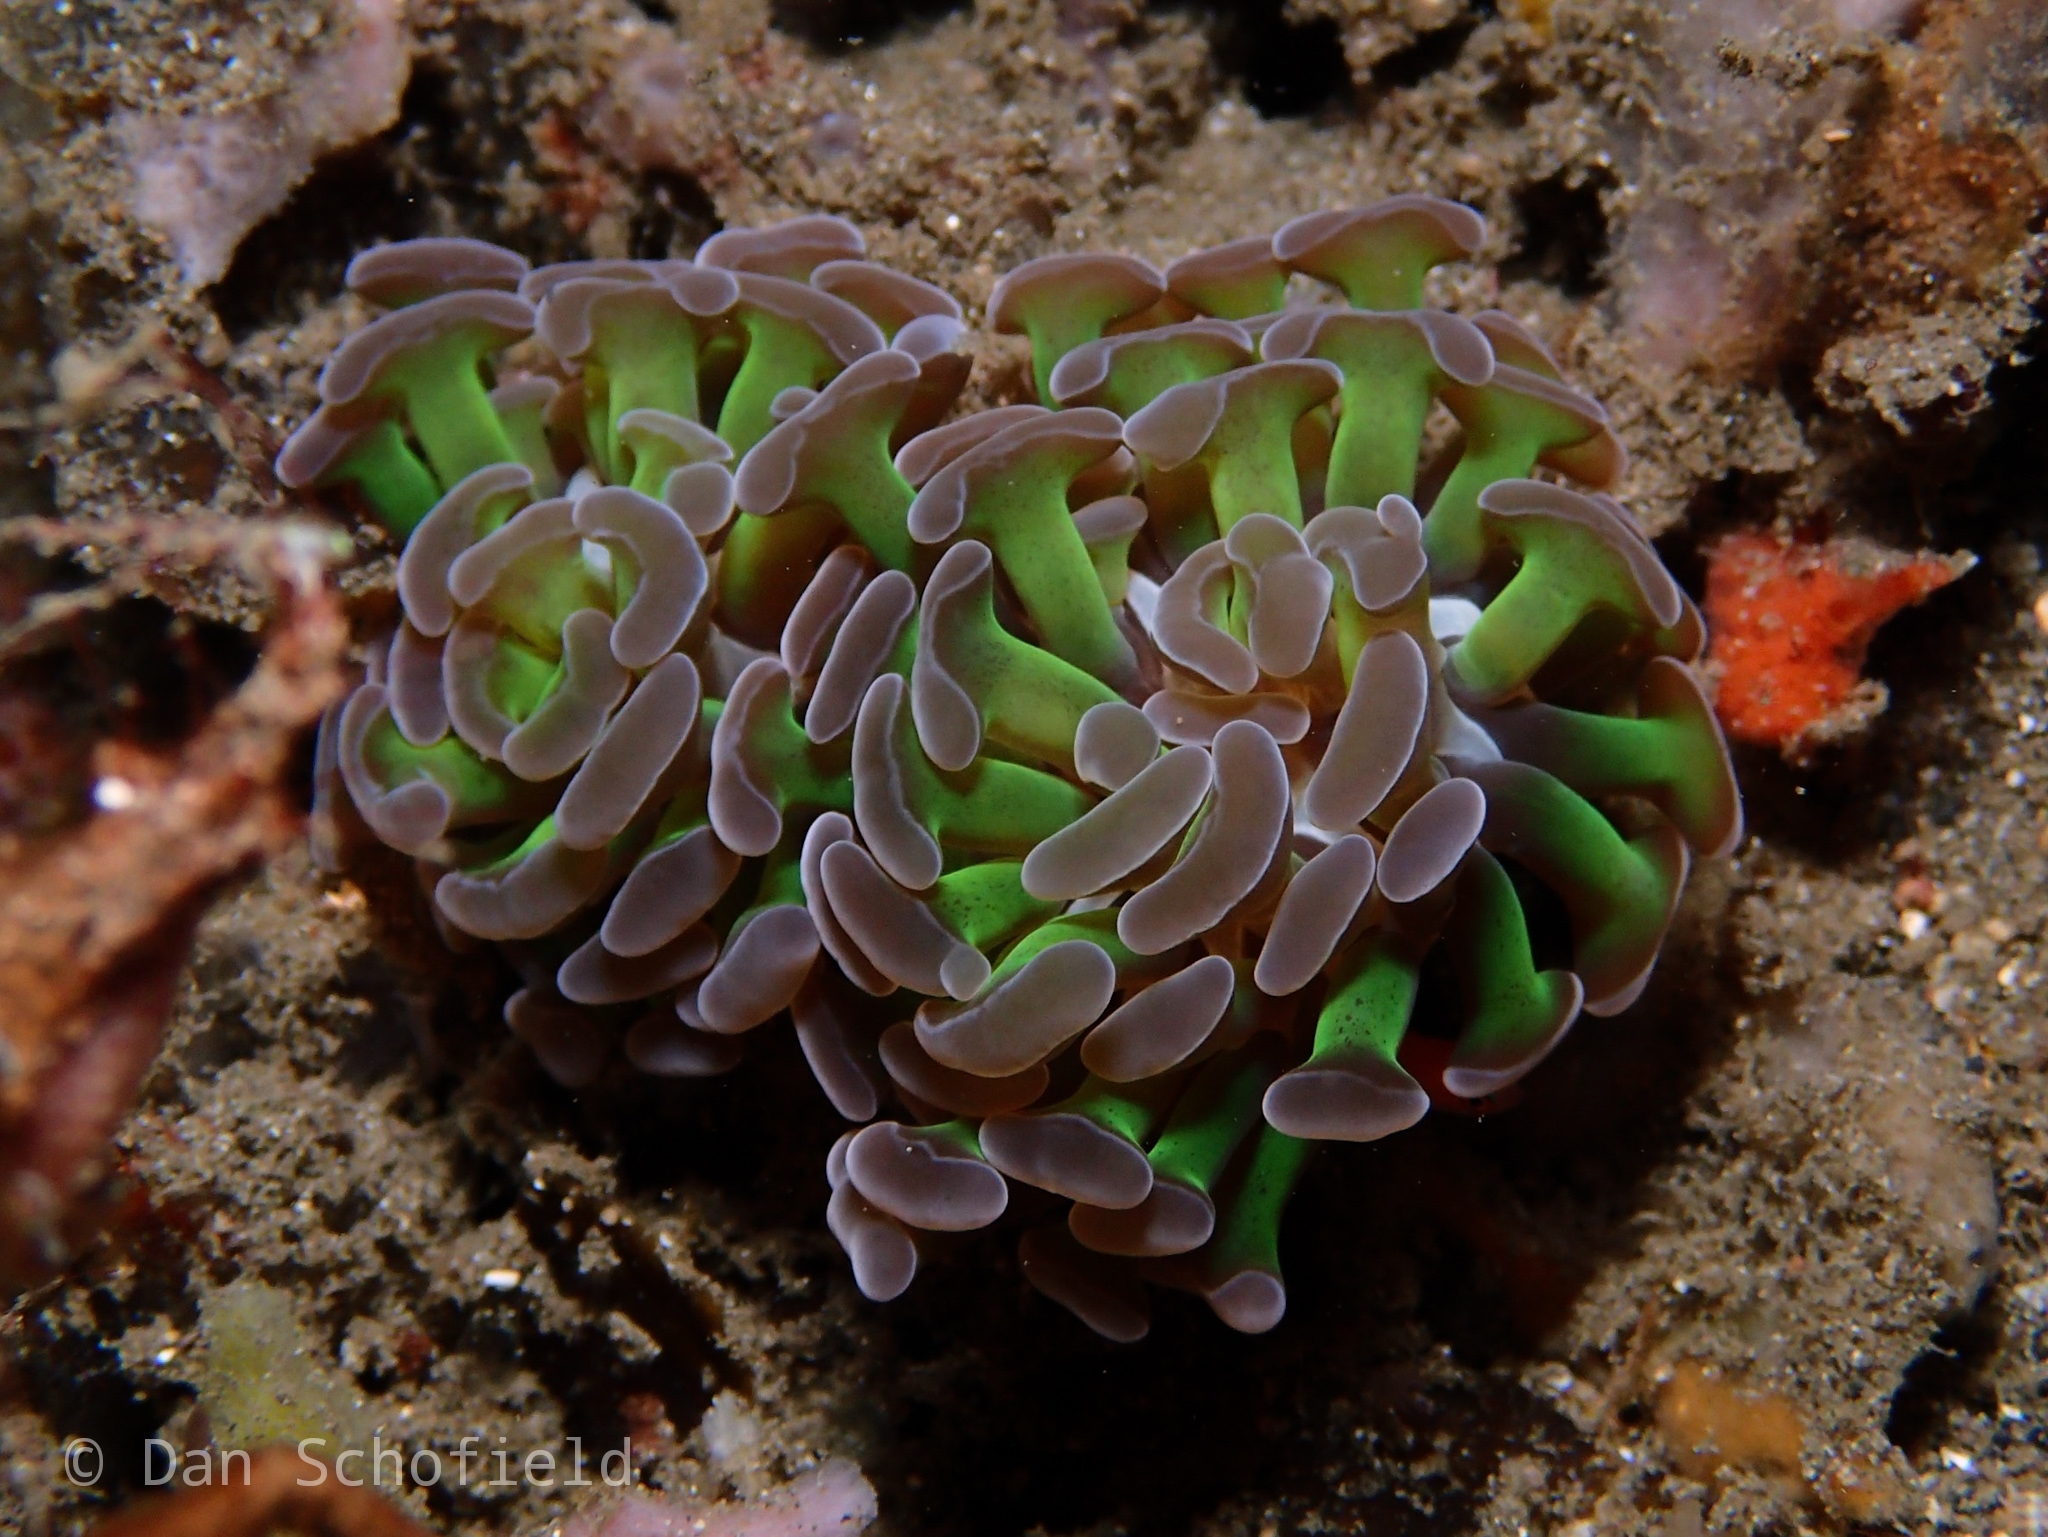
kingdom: Animalia
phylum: Cnidaria
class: Anthozoa
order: Scleractinia
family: Euphylliidae
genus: Fimbriaphyllia
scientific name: Fimbriaphyllia paraancora
